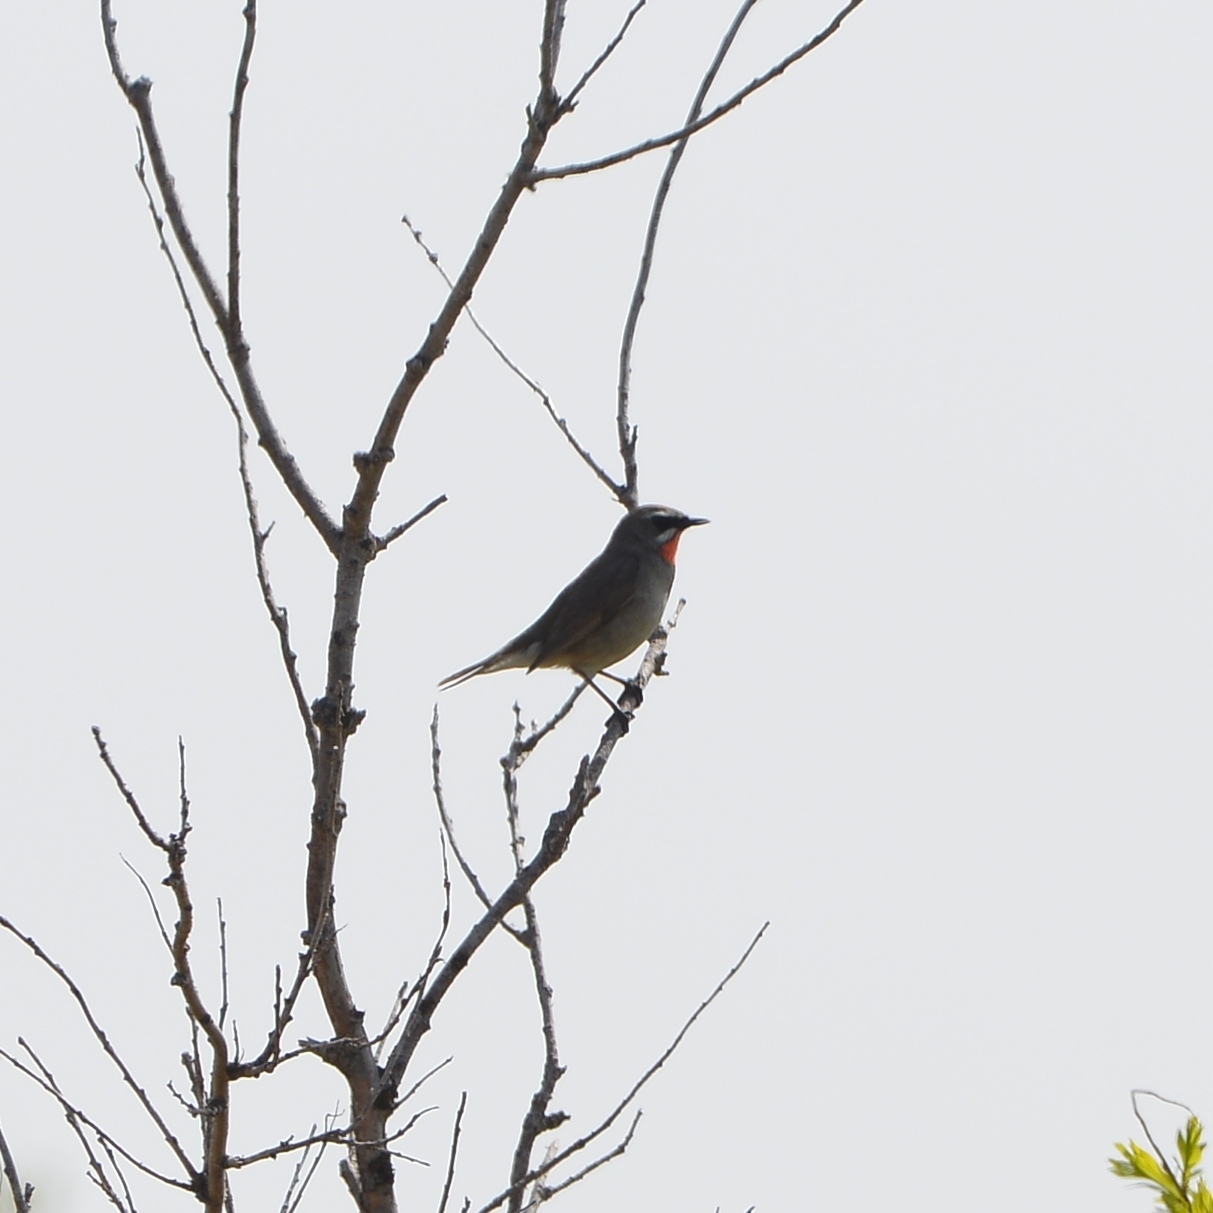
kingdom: Animalia
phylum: Chordata
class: Aves
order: Passeriformes
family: Muscicapidae
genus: Luscinia
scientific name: Luscinia calliope
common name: Siberian rubythroat
